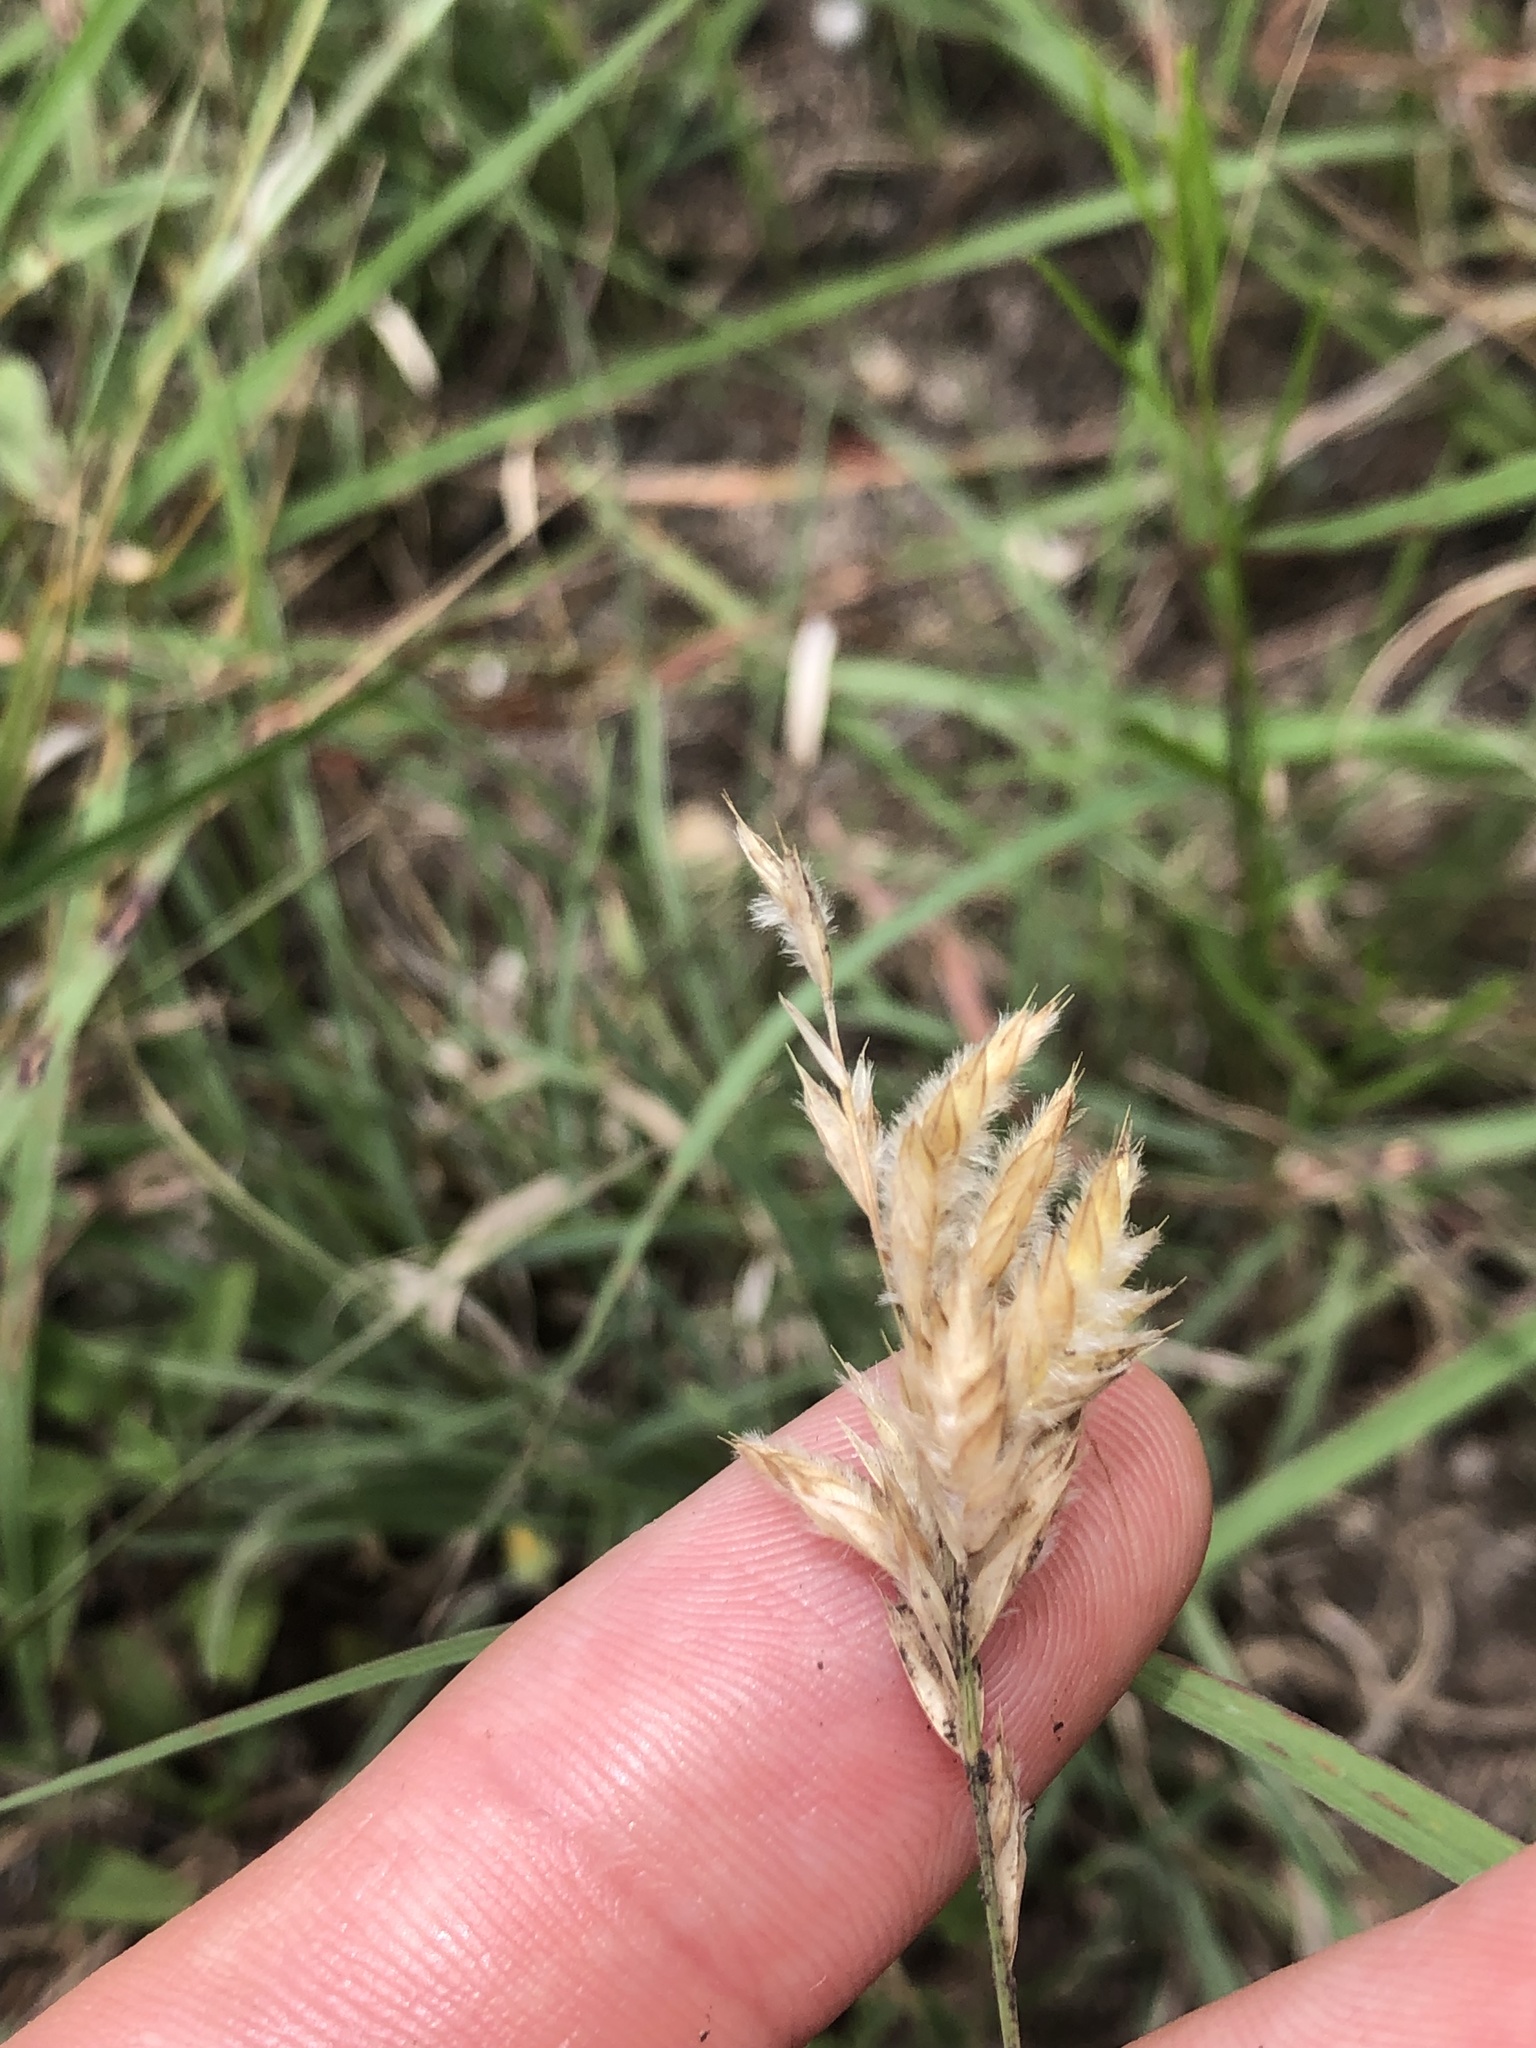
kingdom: Plantae
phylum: Tracheophyta
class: Liliopsida
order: Poales
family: Poaceae
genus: Erioneuron
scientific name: Erioneuron pilosum
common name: Hairy woolly grass
